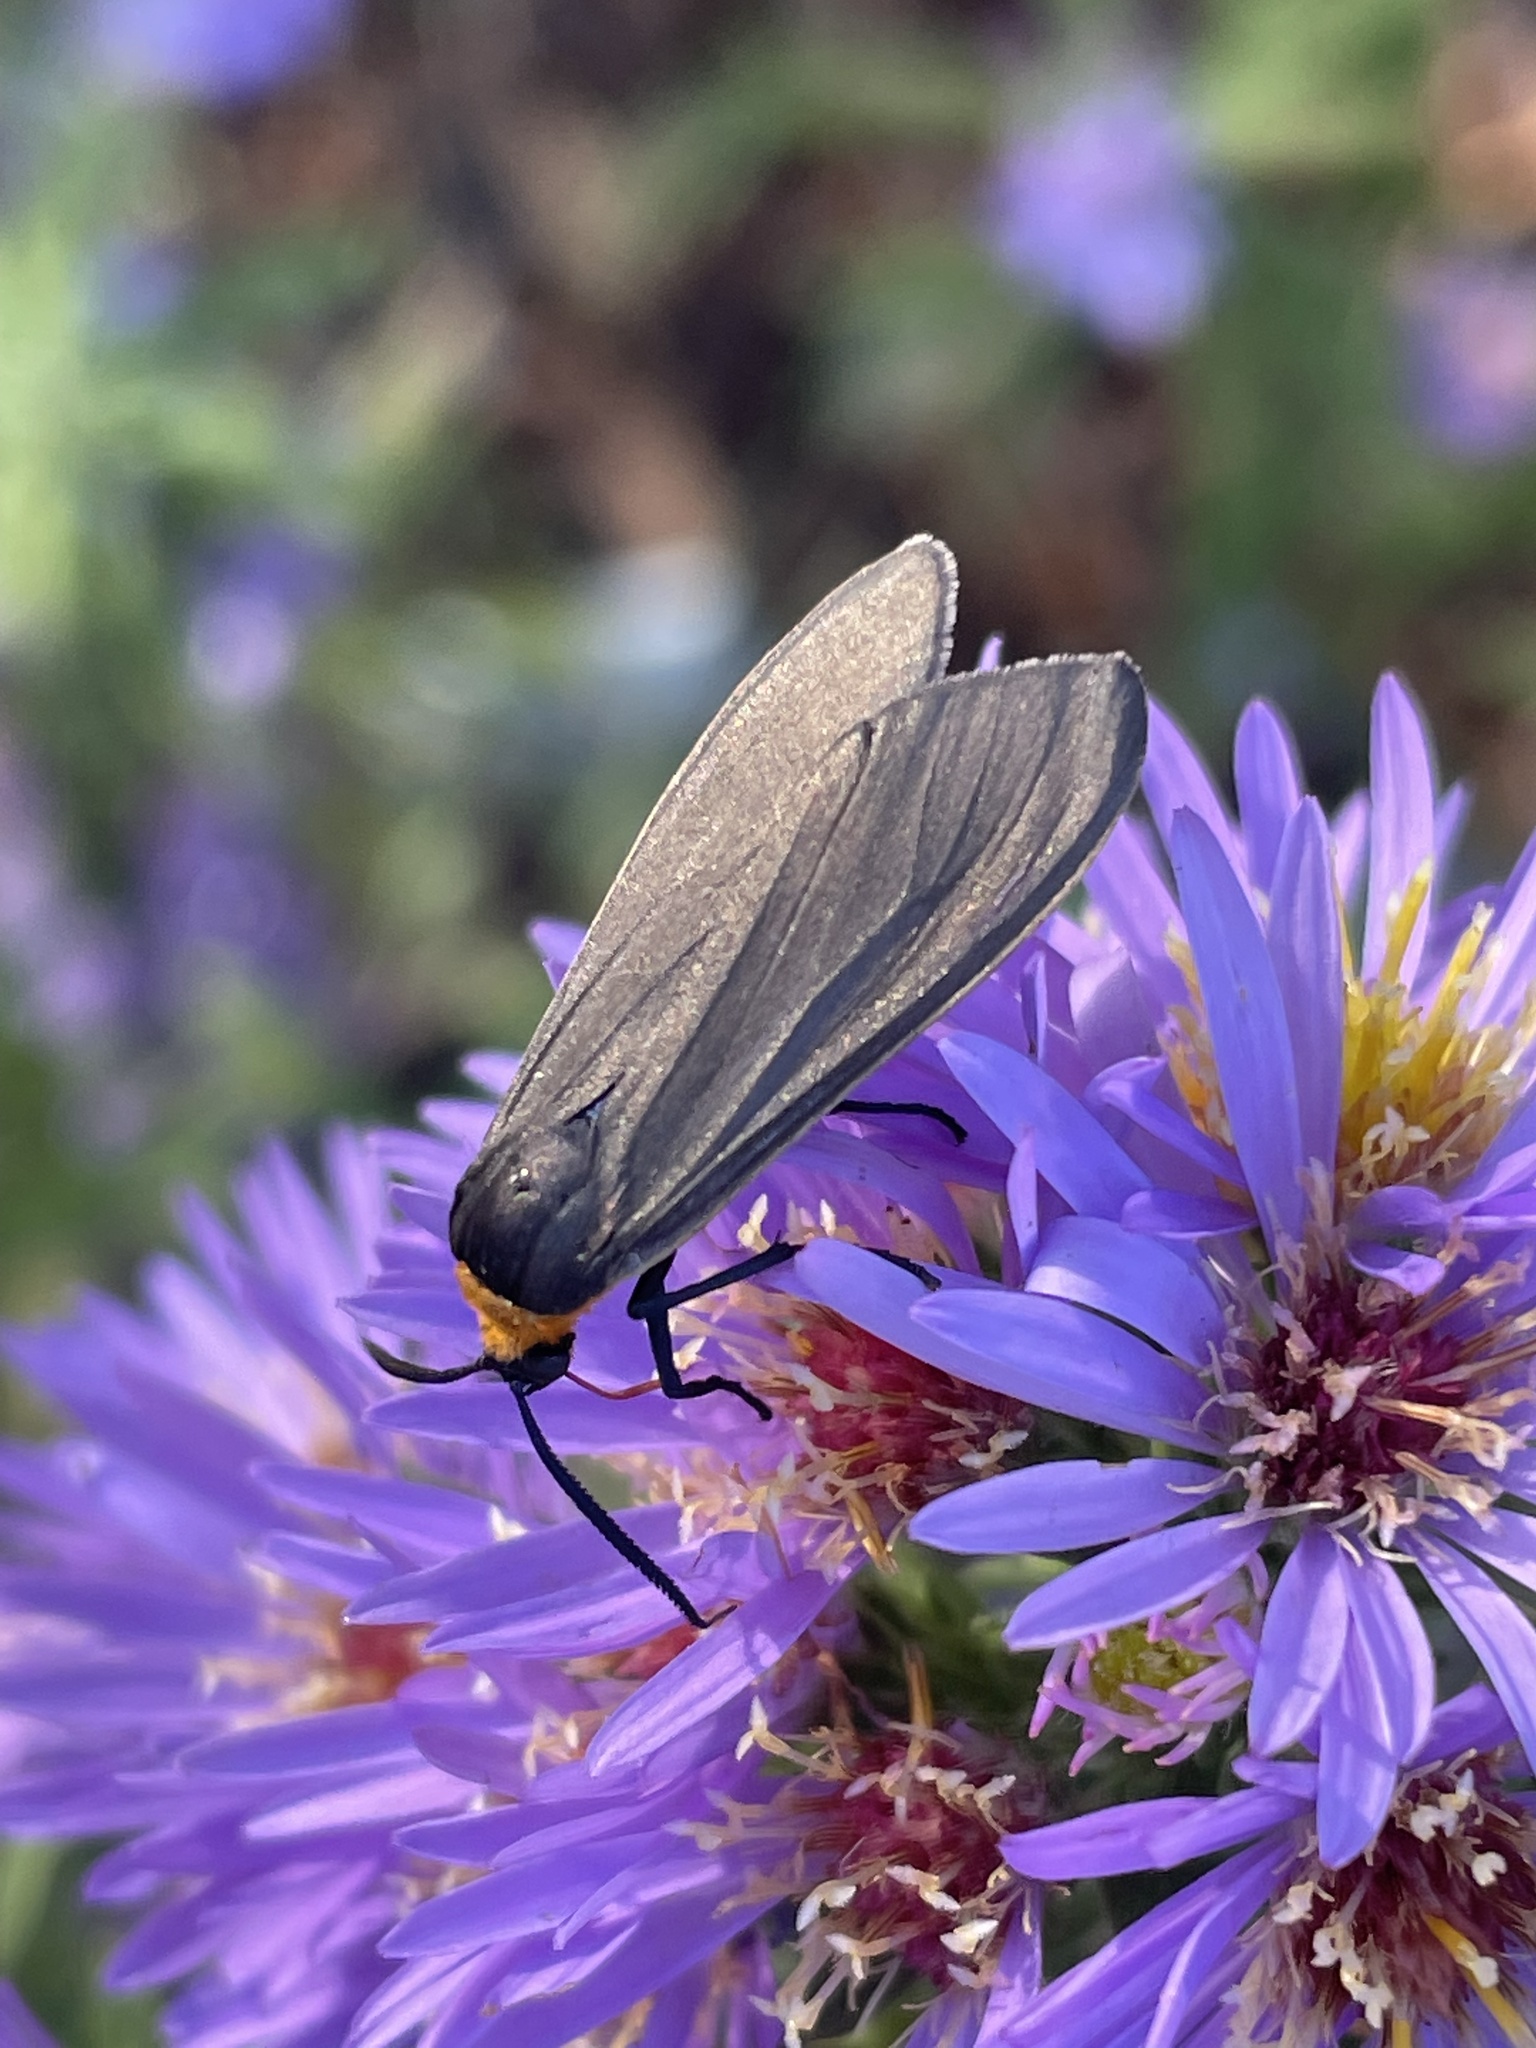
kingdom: Animalia
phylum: Arthropoda
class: Insecta
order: Lepidoptera
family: Erebidae
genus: Cisseps
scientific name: Cisseps fulvicollis
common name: Yellow-collared scape moth
